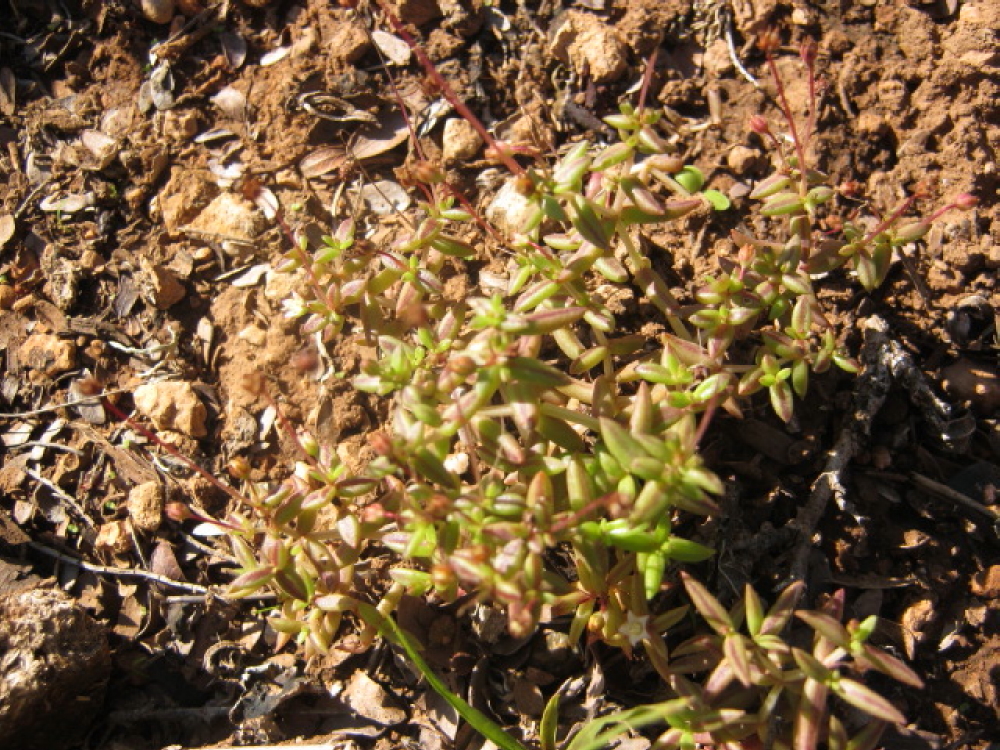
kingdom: Plantae
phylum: Tracheophyta
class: Magnoliopsida
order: Saxifragales
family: Crassulaceae
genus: Crassula
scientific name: Crassula expansa
